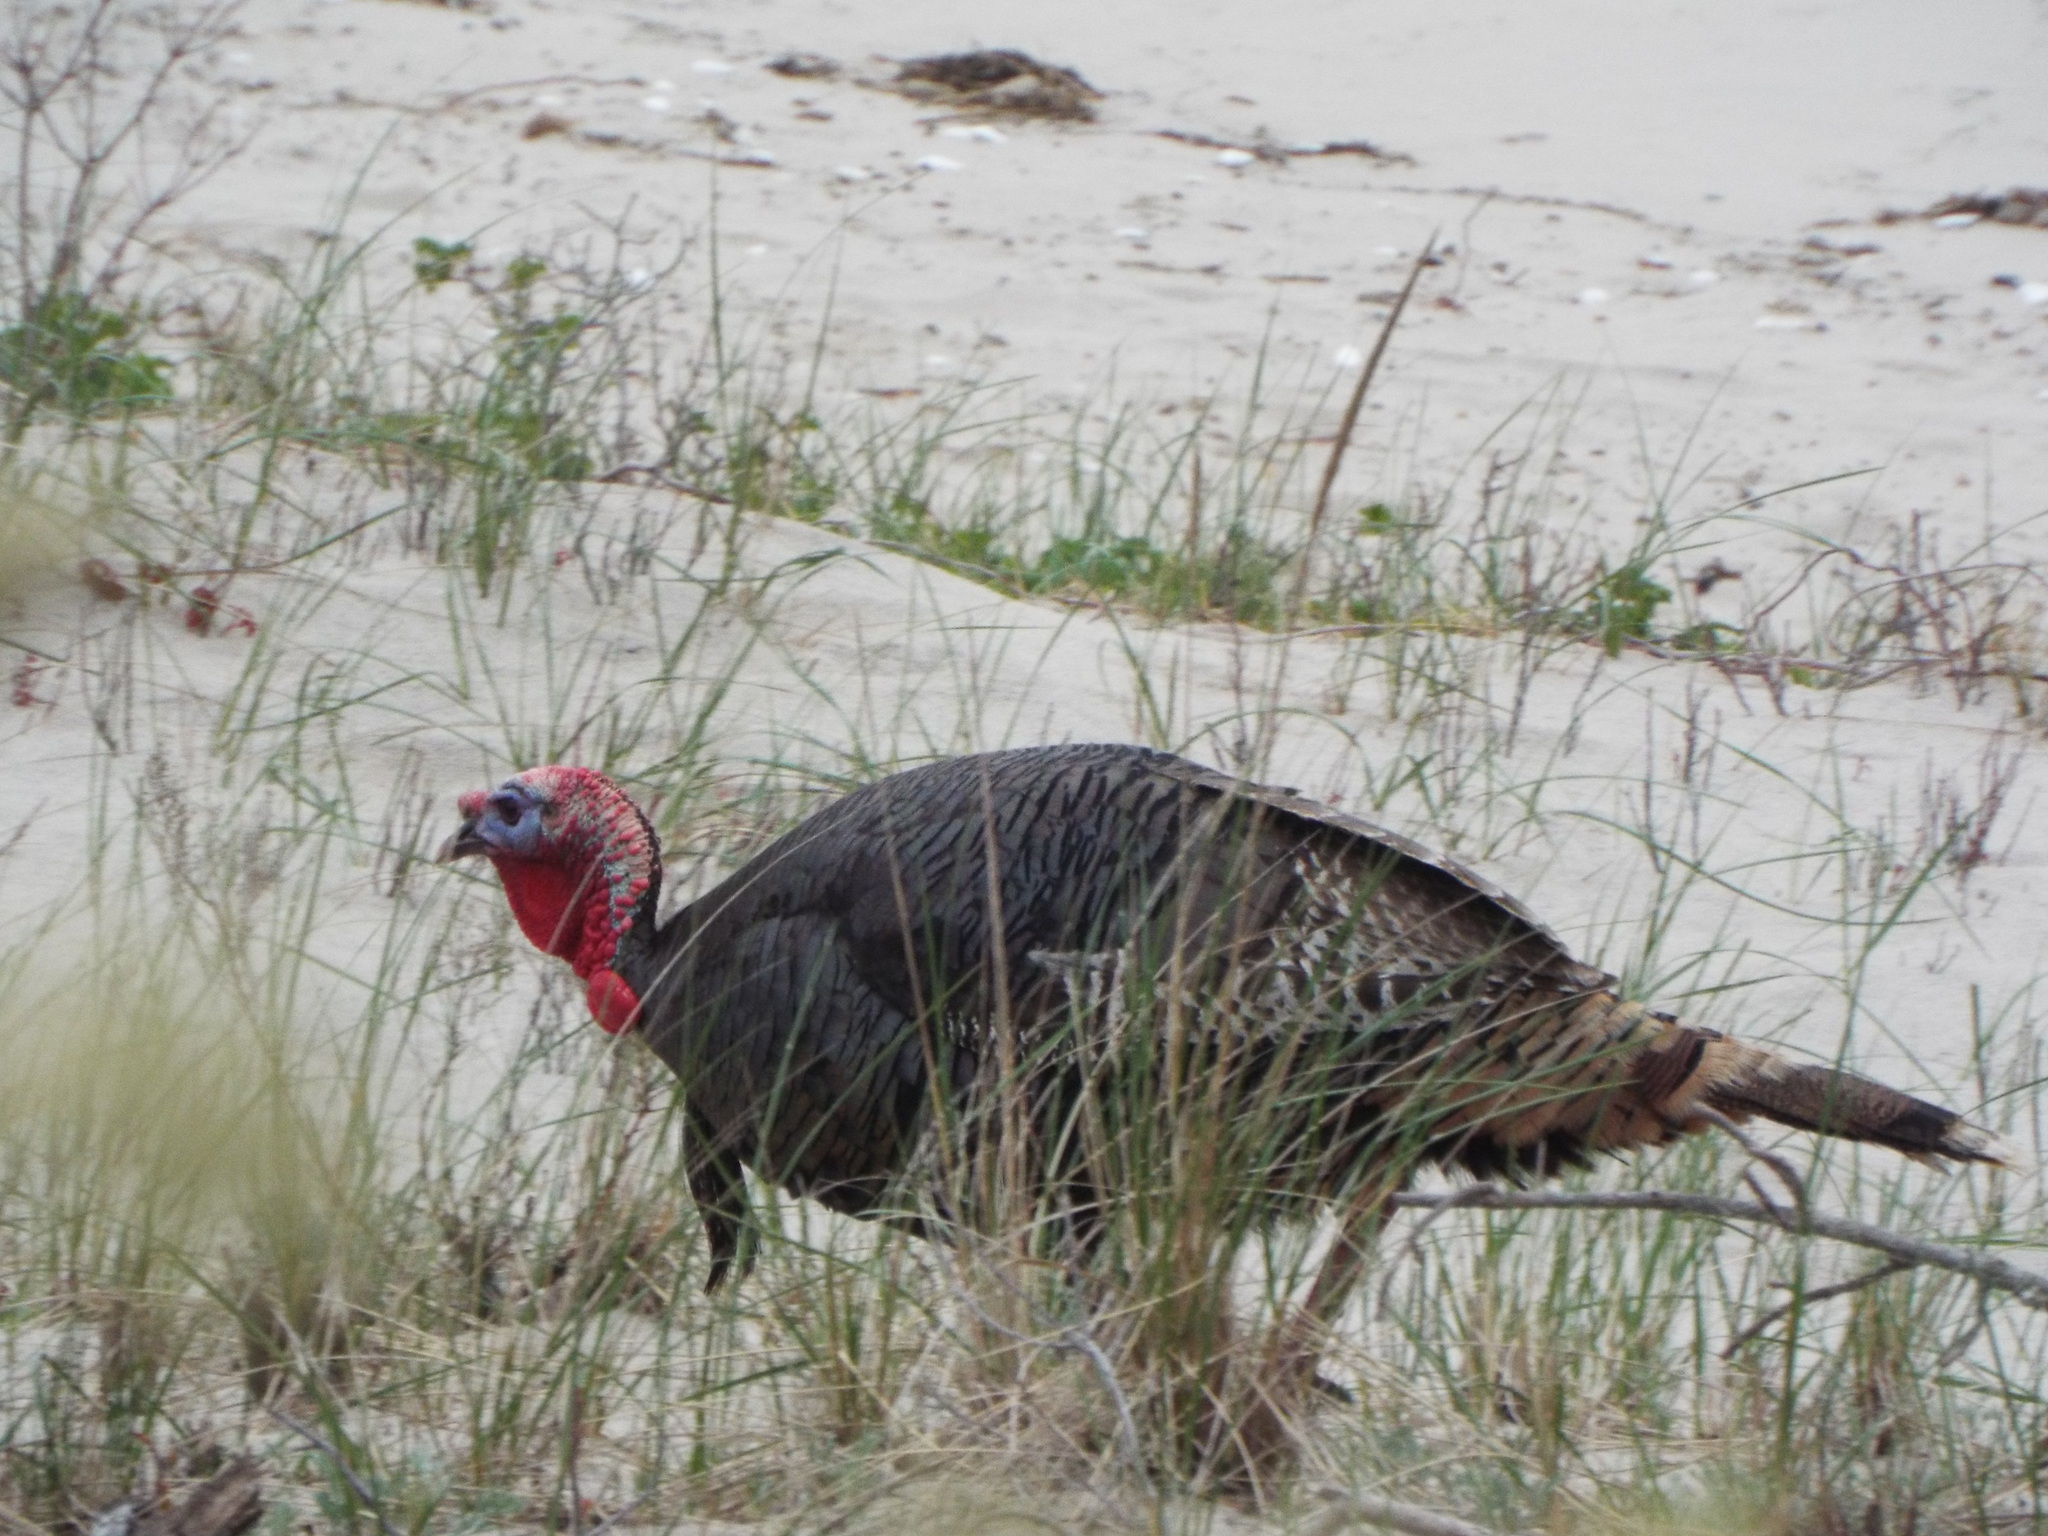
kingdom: Animalia
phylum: Chordata
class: Aves
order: Galliformes
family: Phasianidae
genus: Meleagris
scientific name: Meleagris gallopavo
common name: Wild turkey
